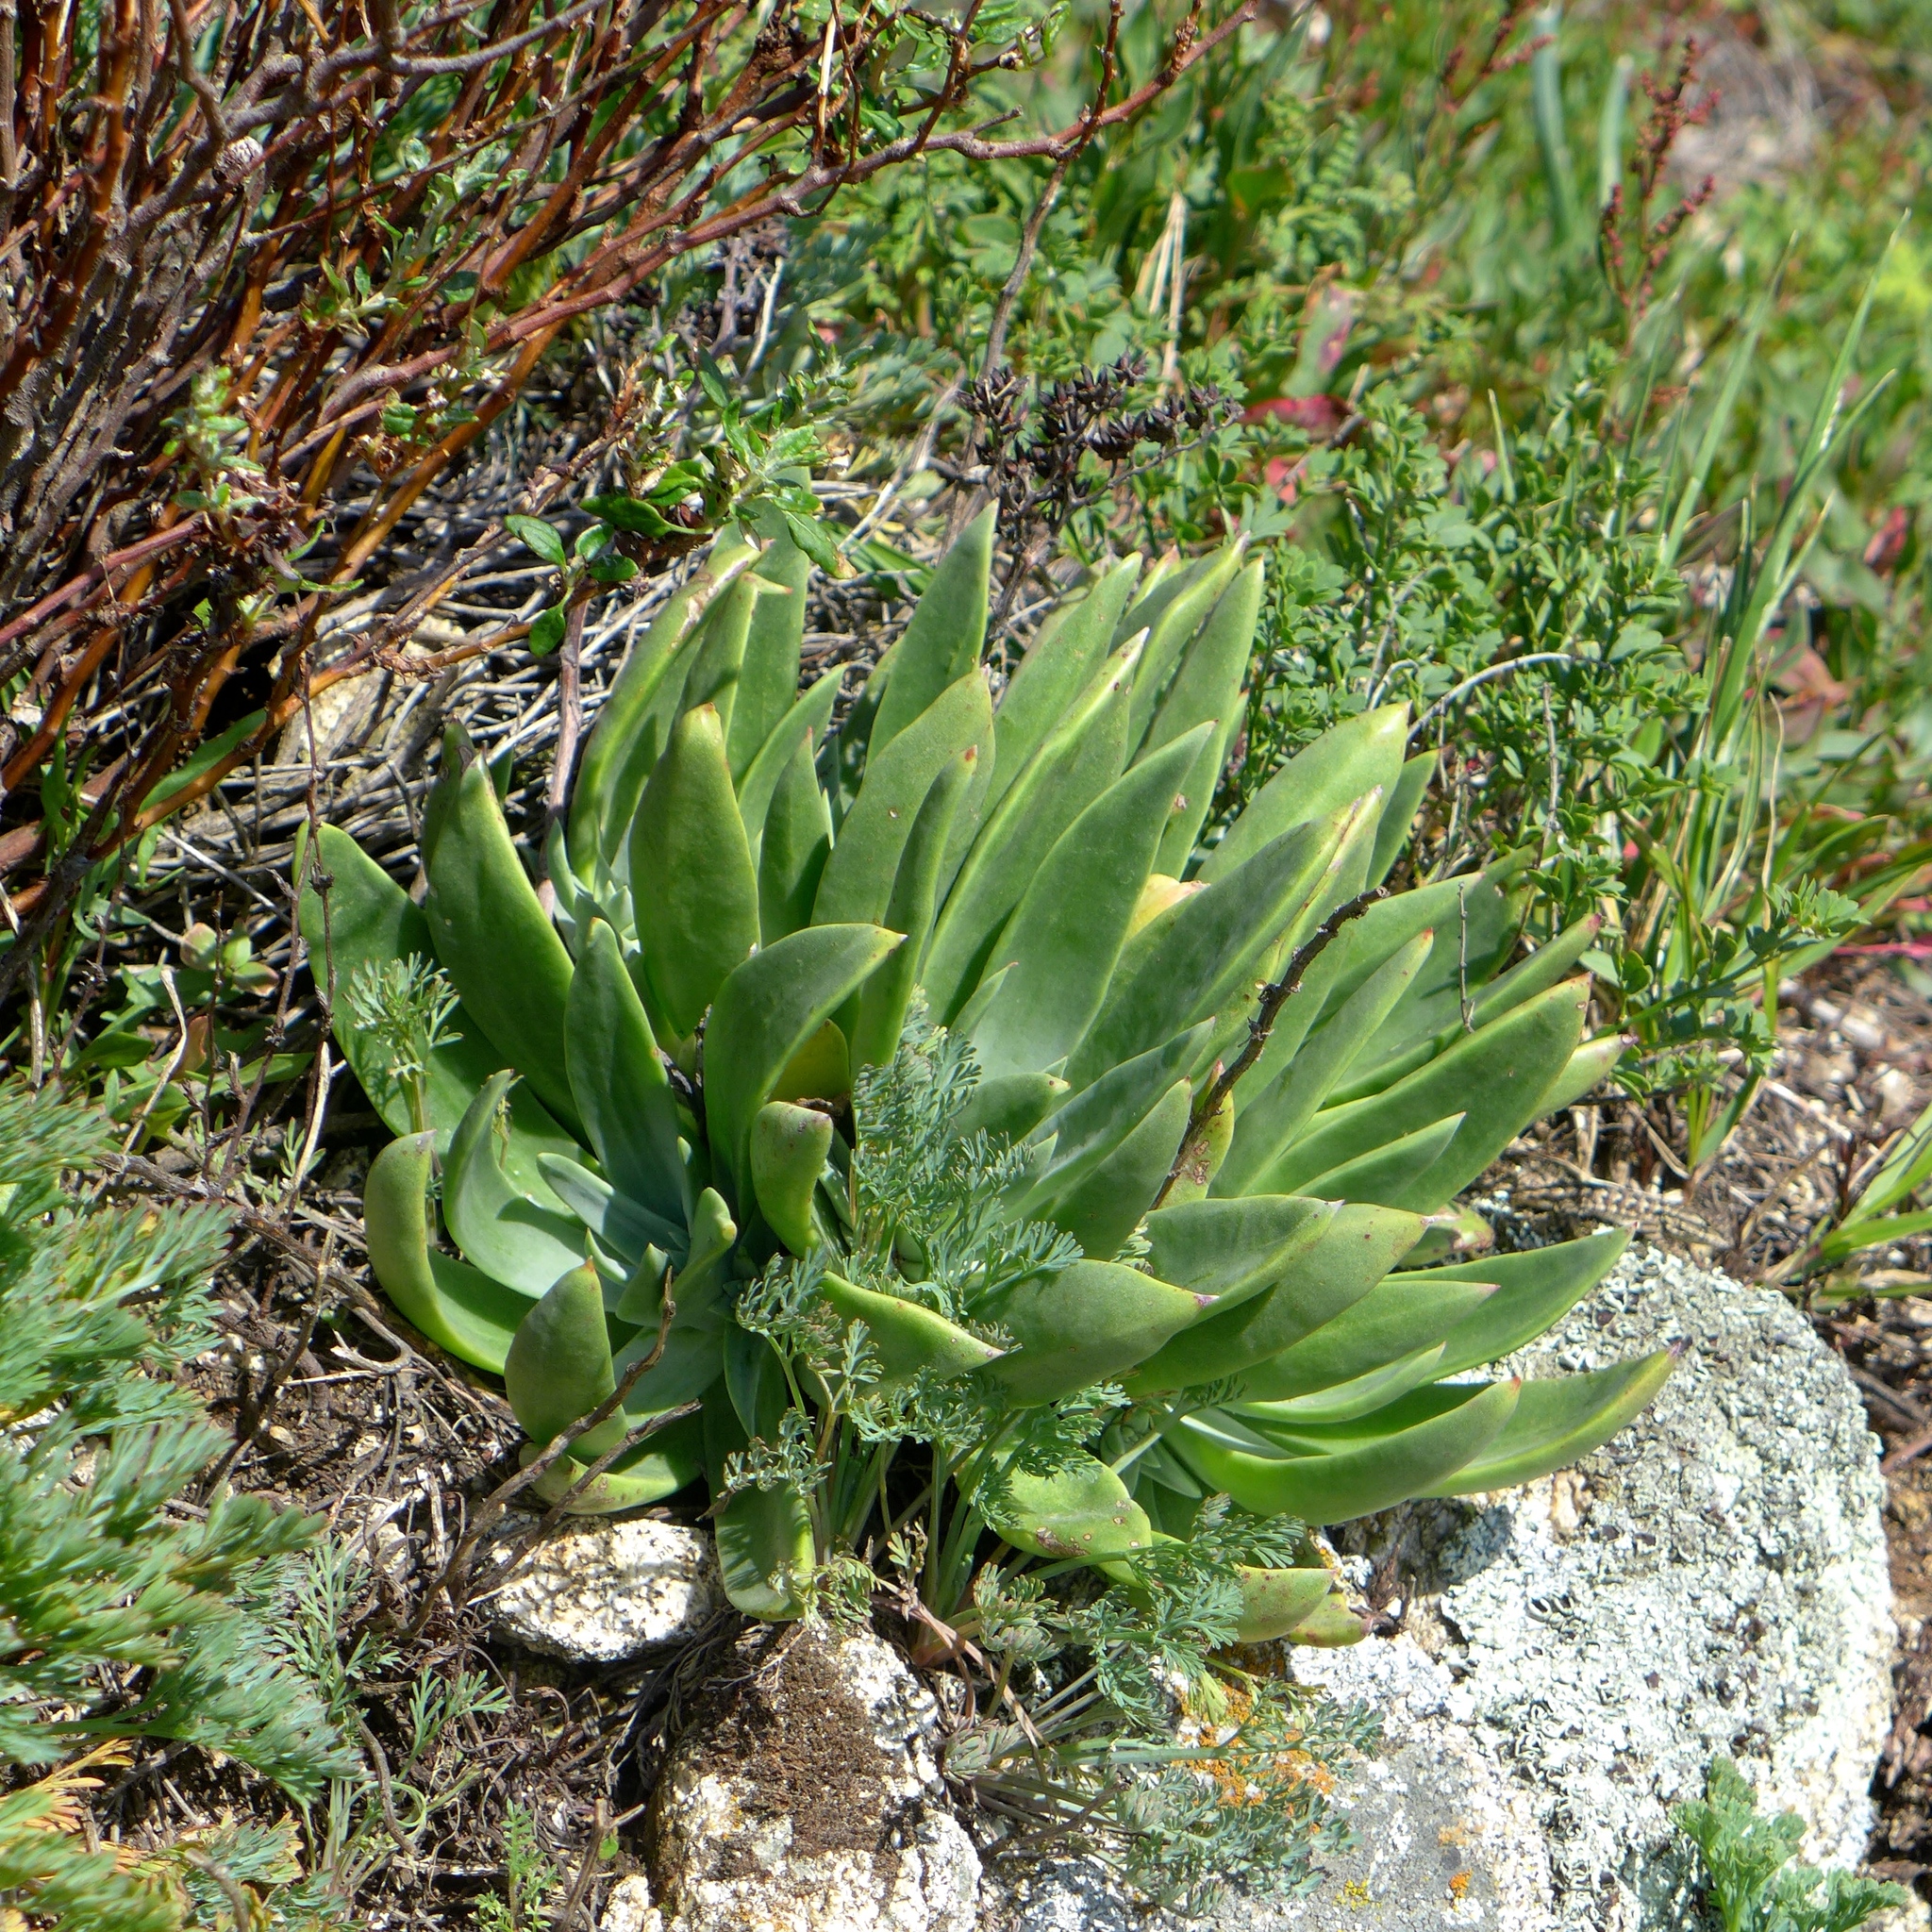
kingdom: Plantae
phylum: Tracheophyta
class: Magnoliopsida
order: Saxifragales
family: Crassulaceae
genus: Dudleya
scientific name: Dudleya lanceolata
